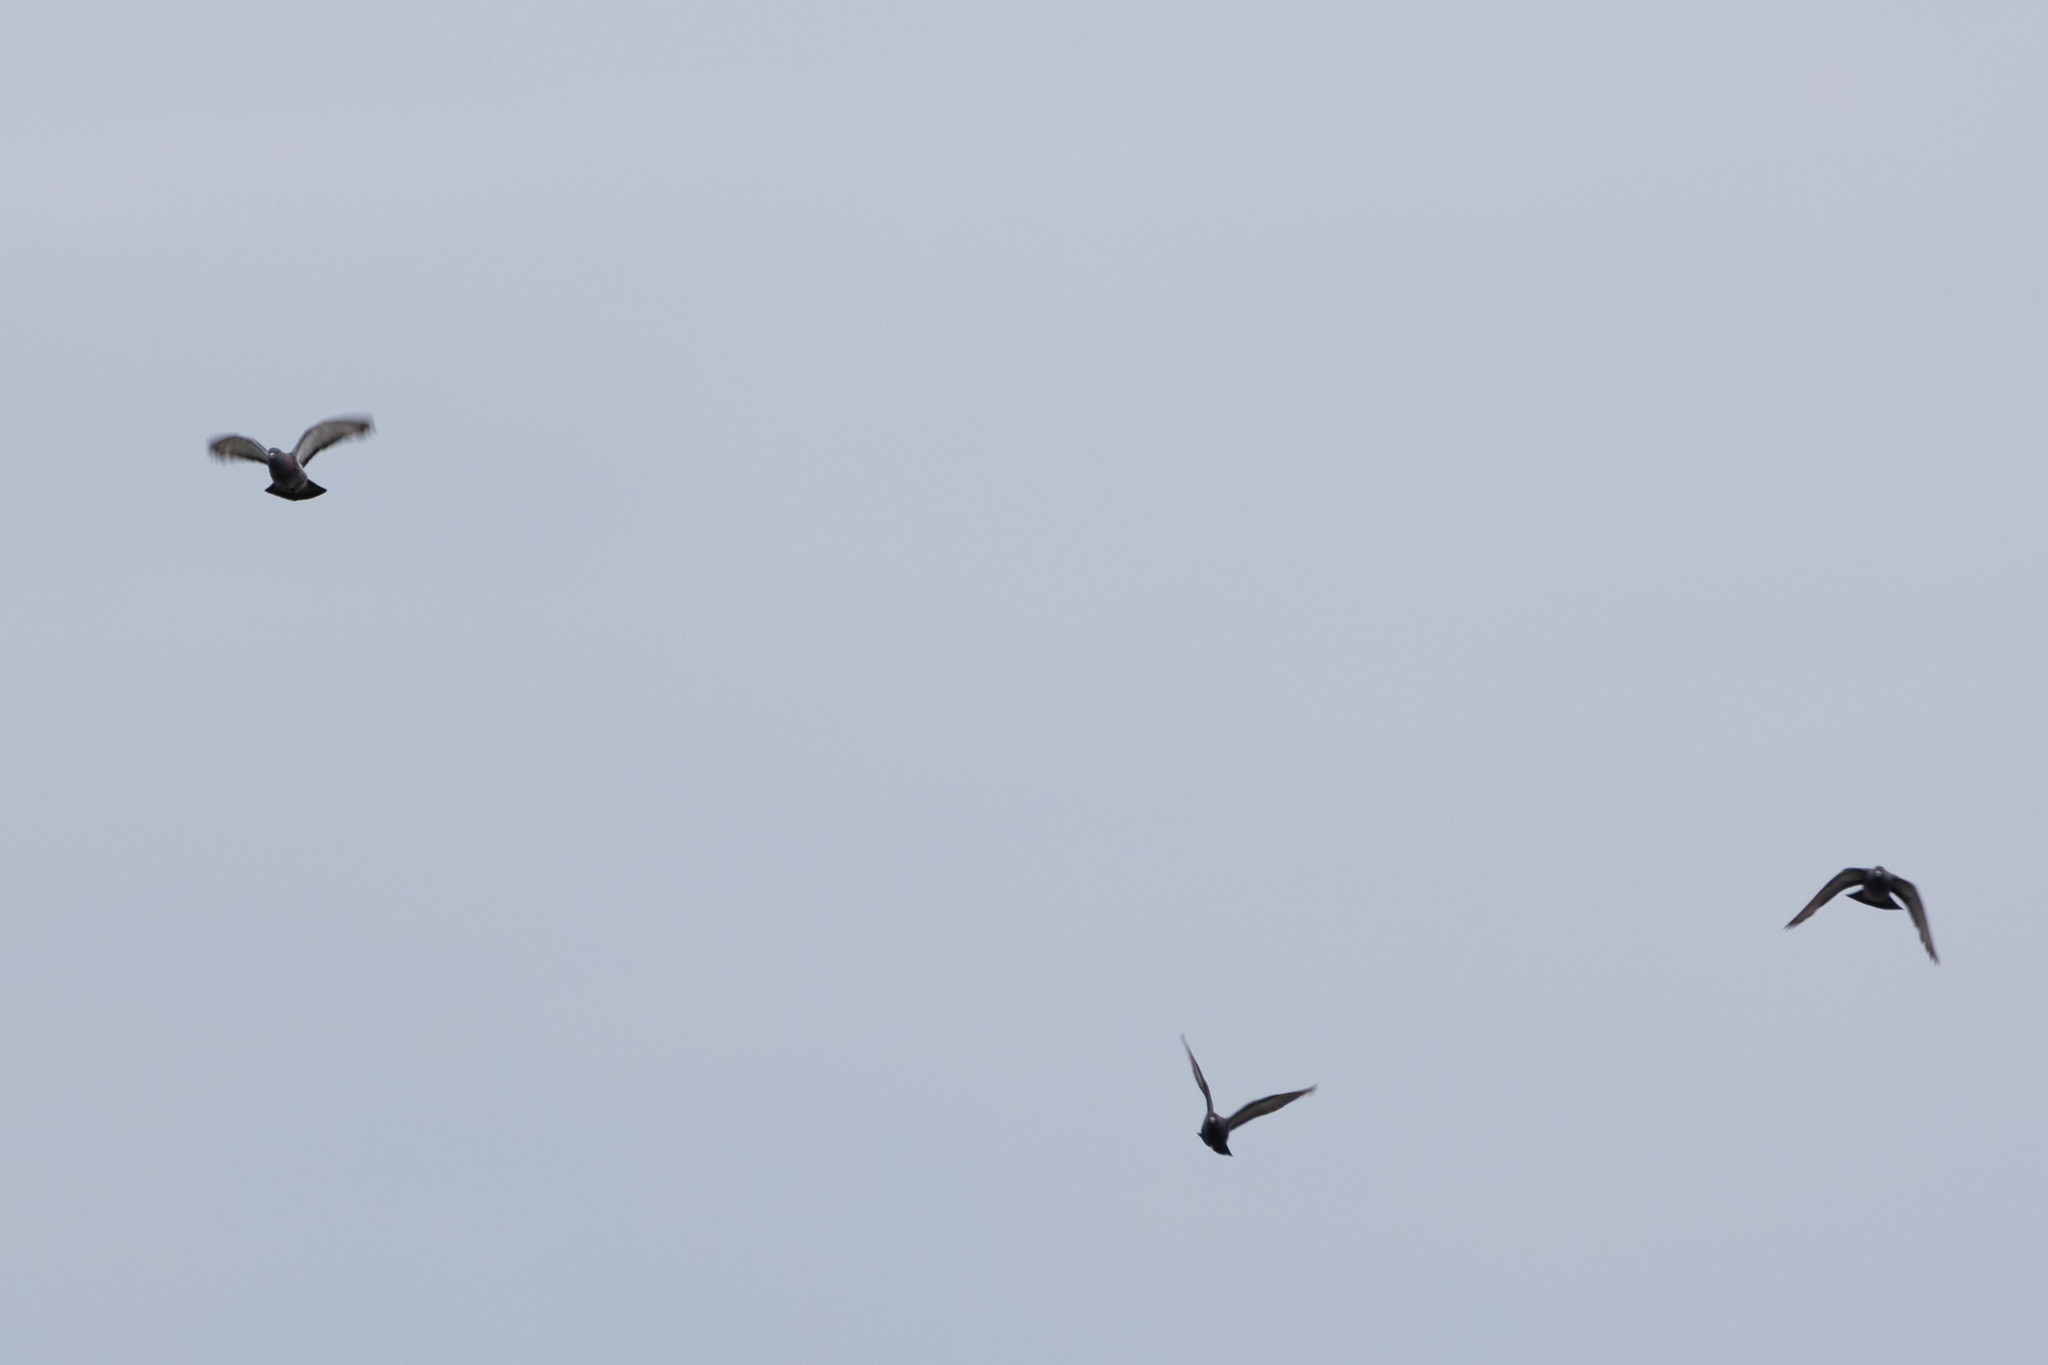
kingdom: Animalia
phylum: Chordata
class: Aves
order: Columbiformes
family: Columbidae
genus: Columba
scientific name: Columba livia
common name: Rock pigeon
